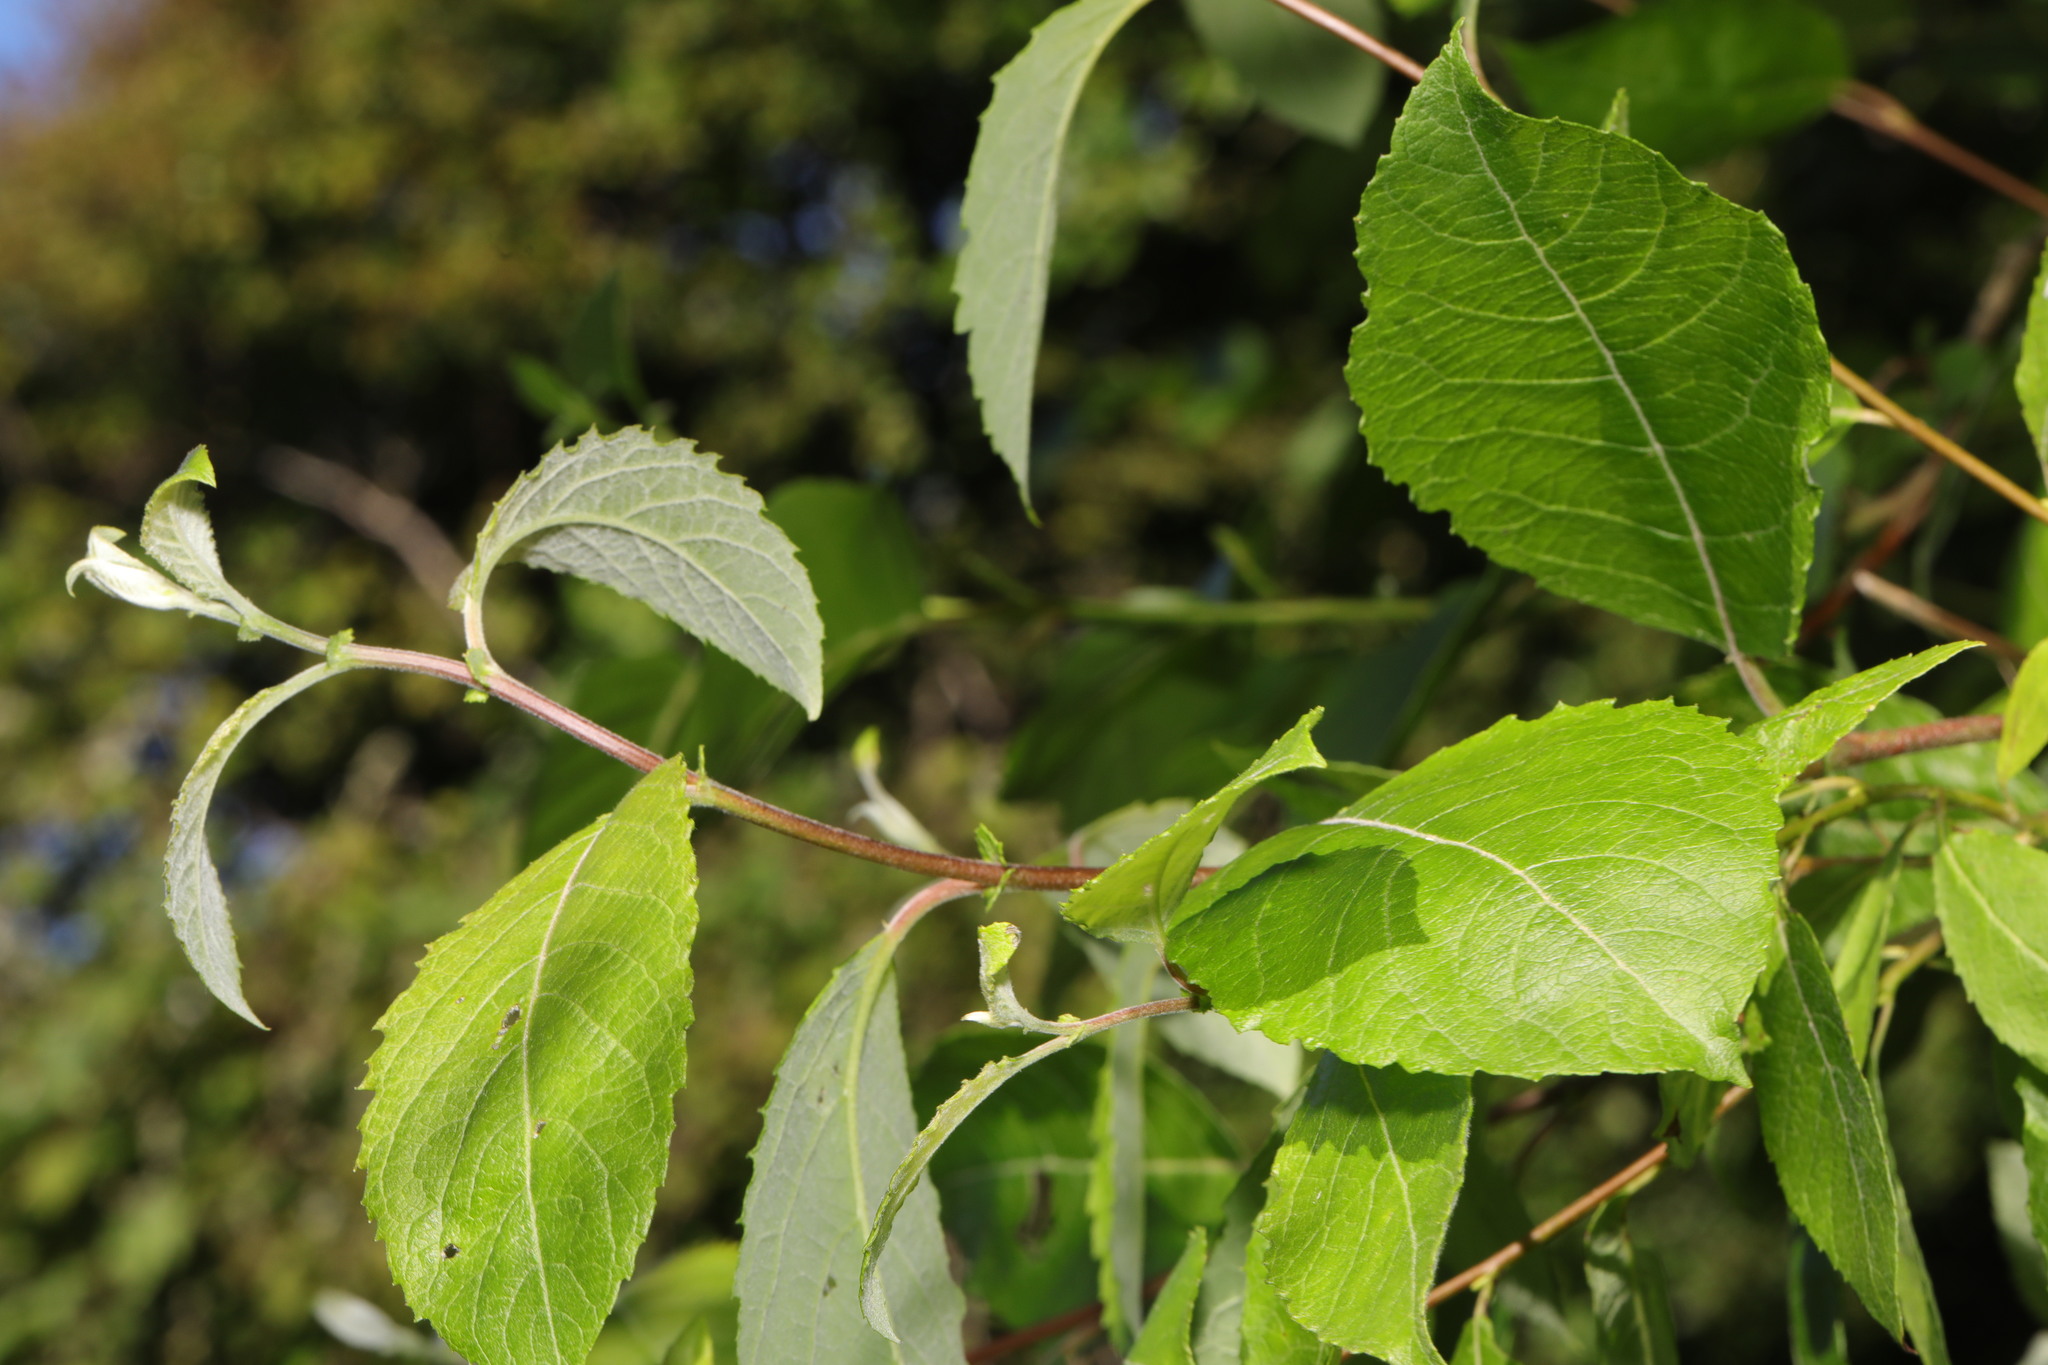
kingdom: Plantae
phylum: Tracheophyta
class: Magnoliopsida
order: Malpighiales
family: Salicaceae
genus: Salix
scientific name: Salix caprea
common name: Goat willow
